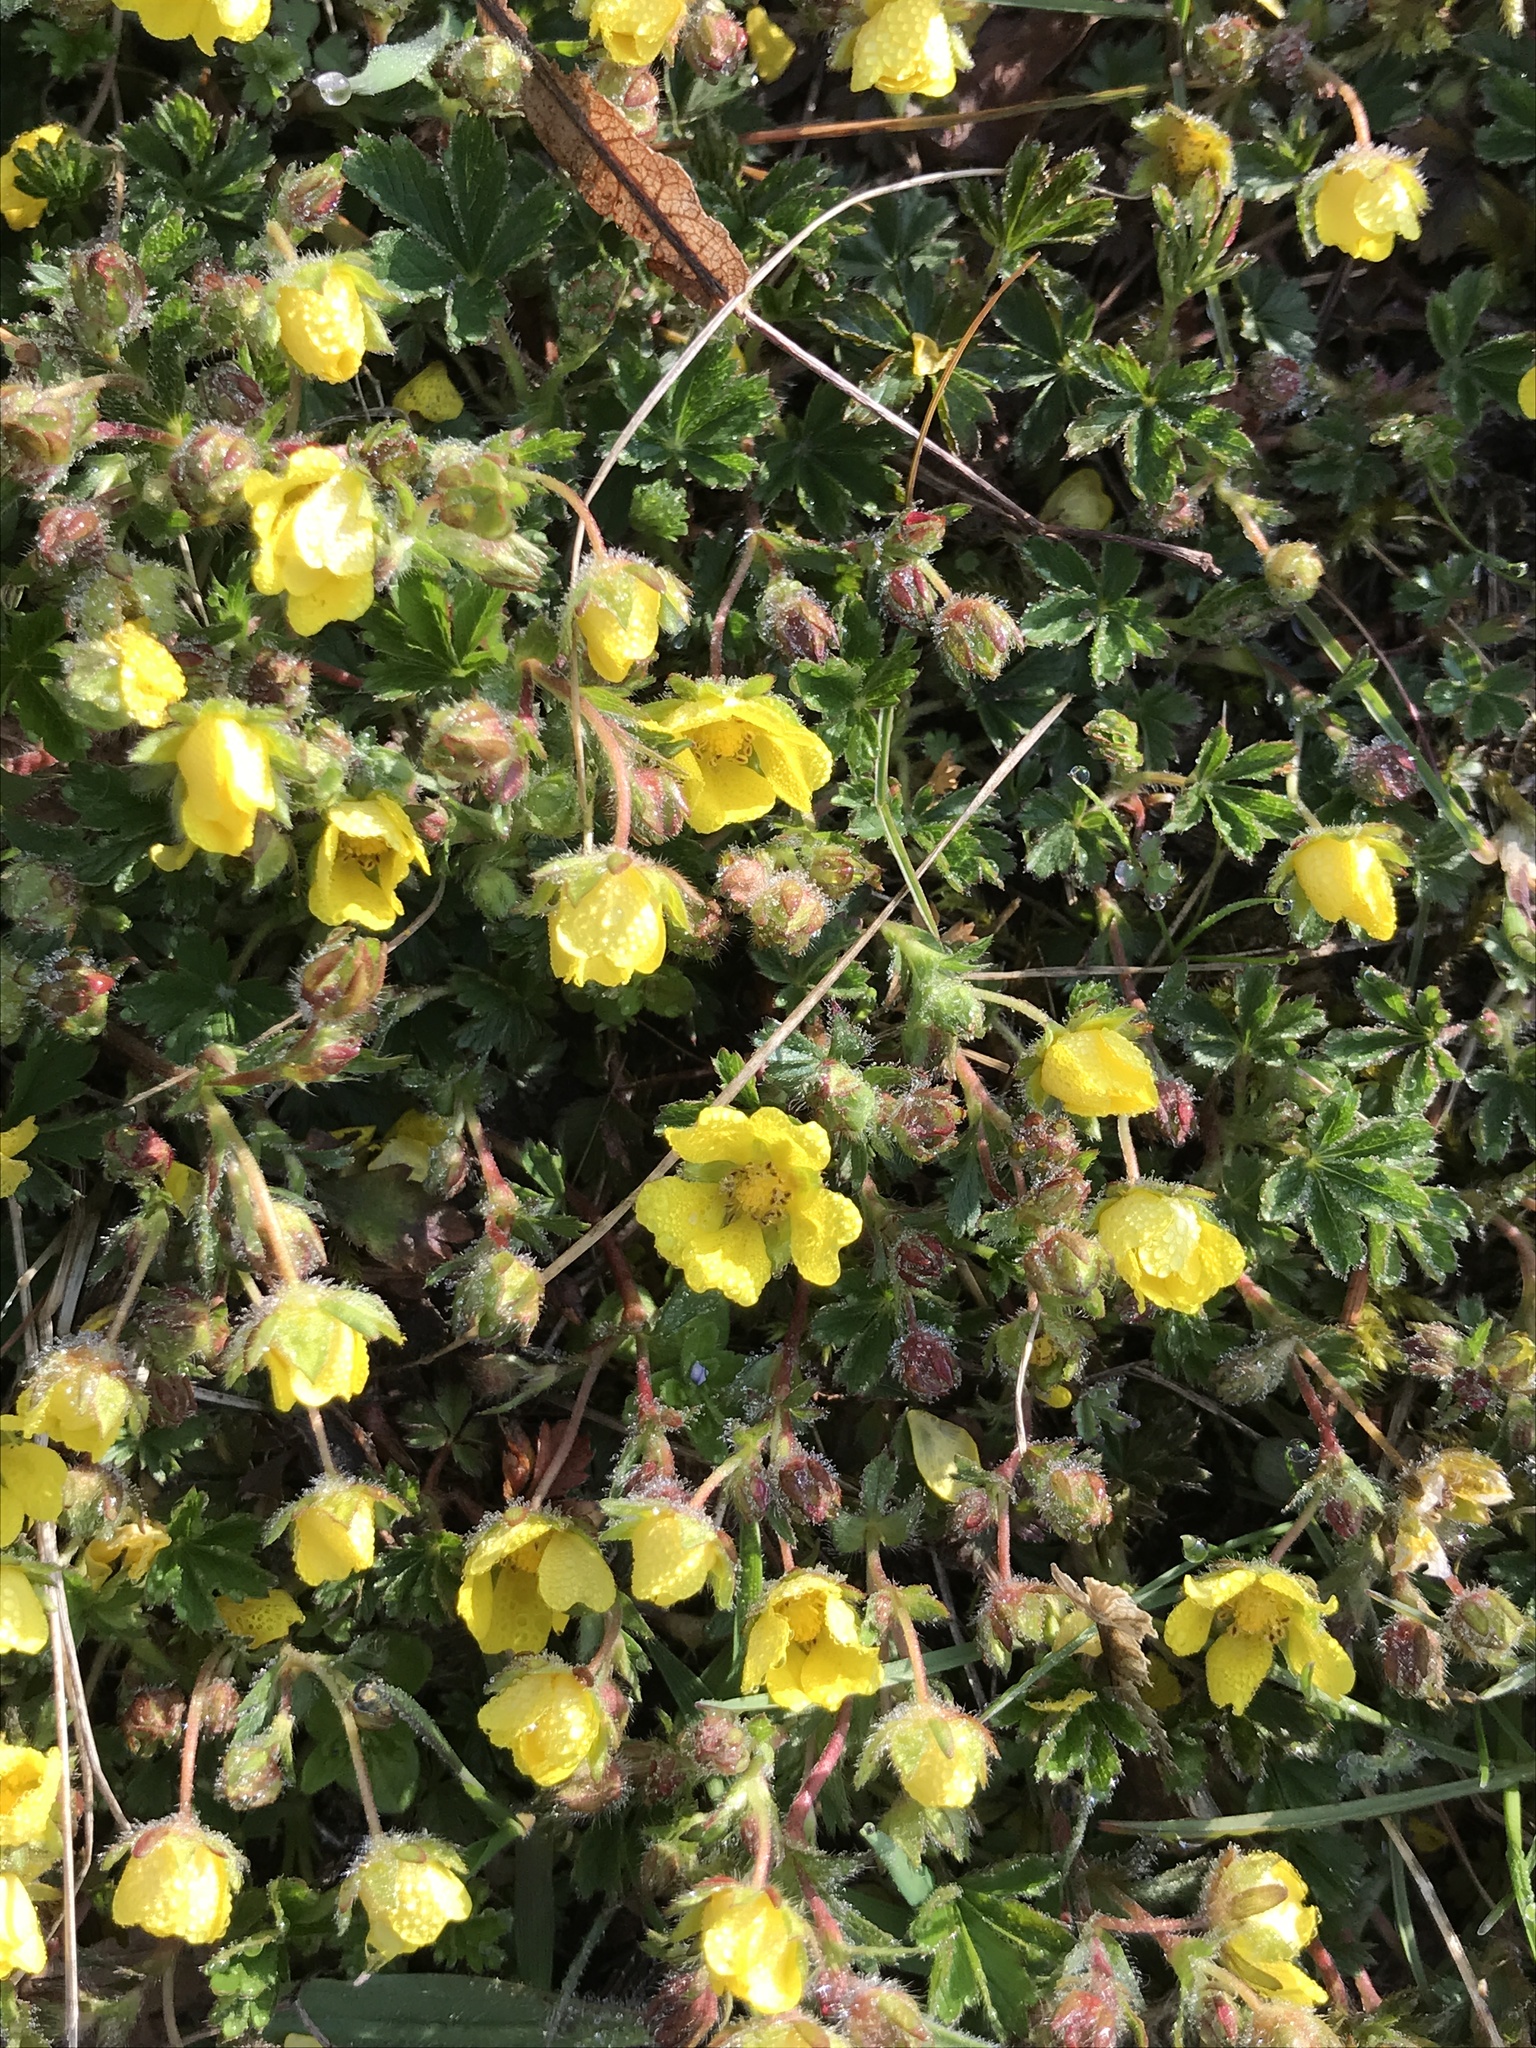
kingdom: Plantae
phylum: Tracheophyta
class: Magnoliopsida
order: Rosales
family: Rosaceae
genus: Potentilla
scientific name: Potentilla verna
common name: Spring cinquefoil
